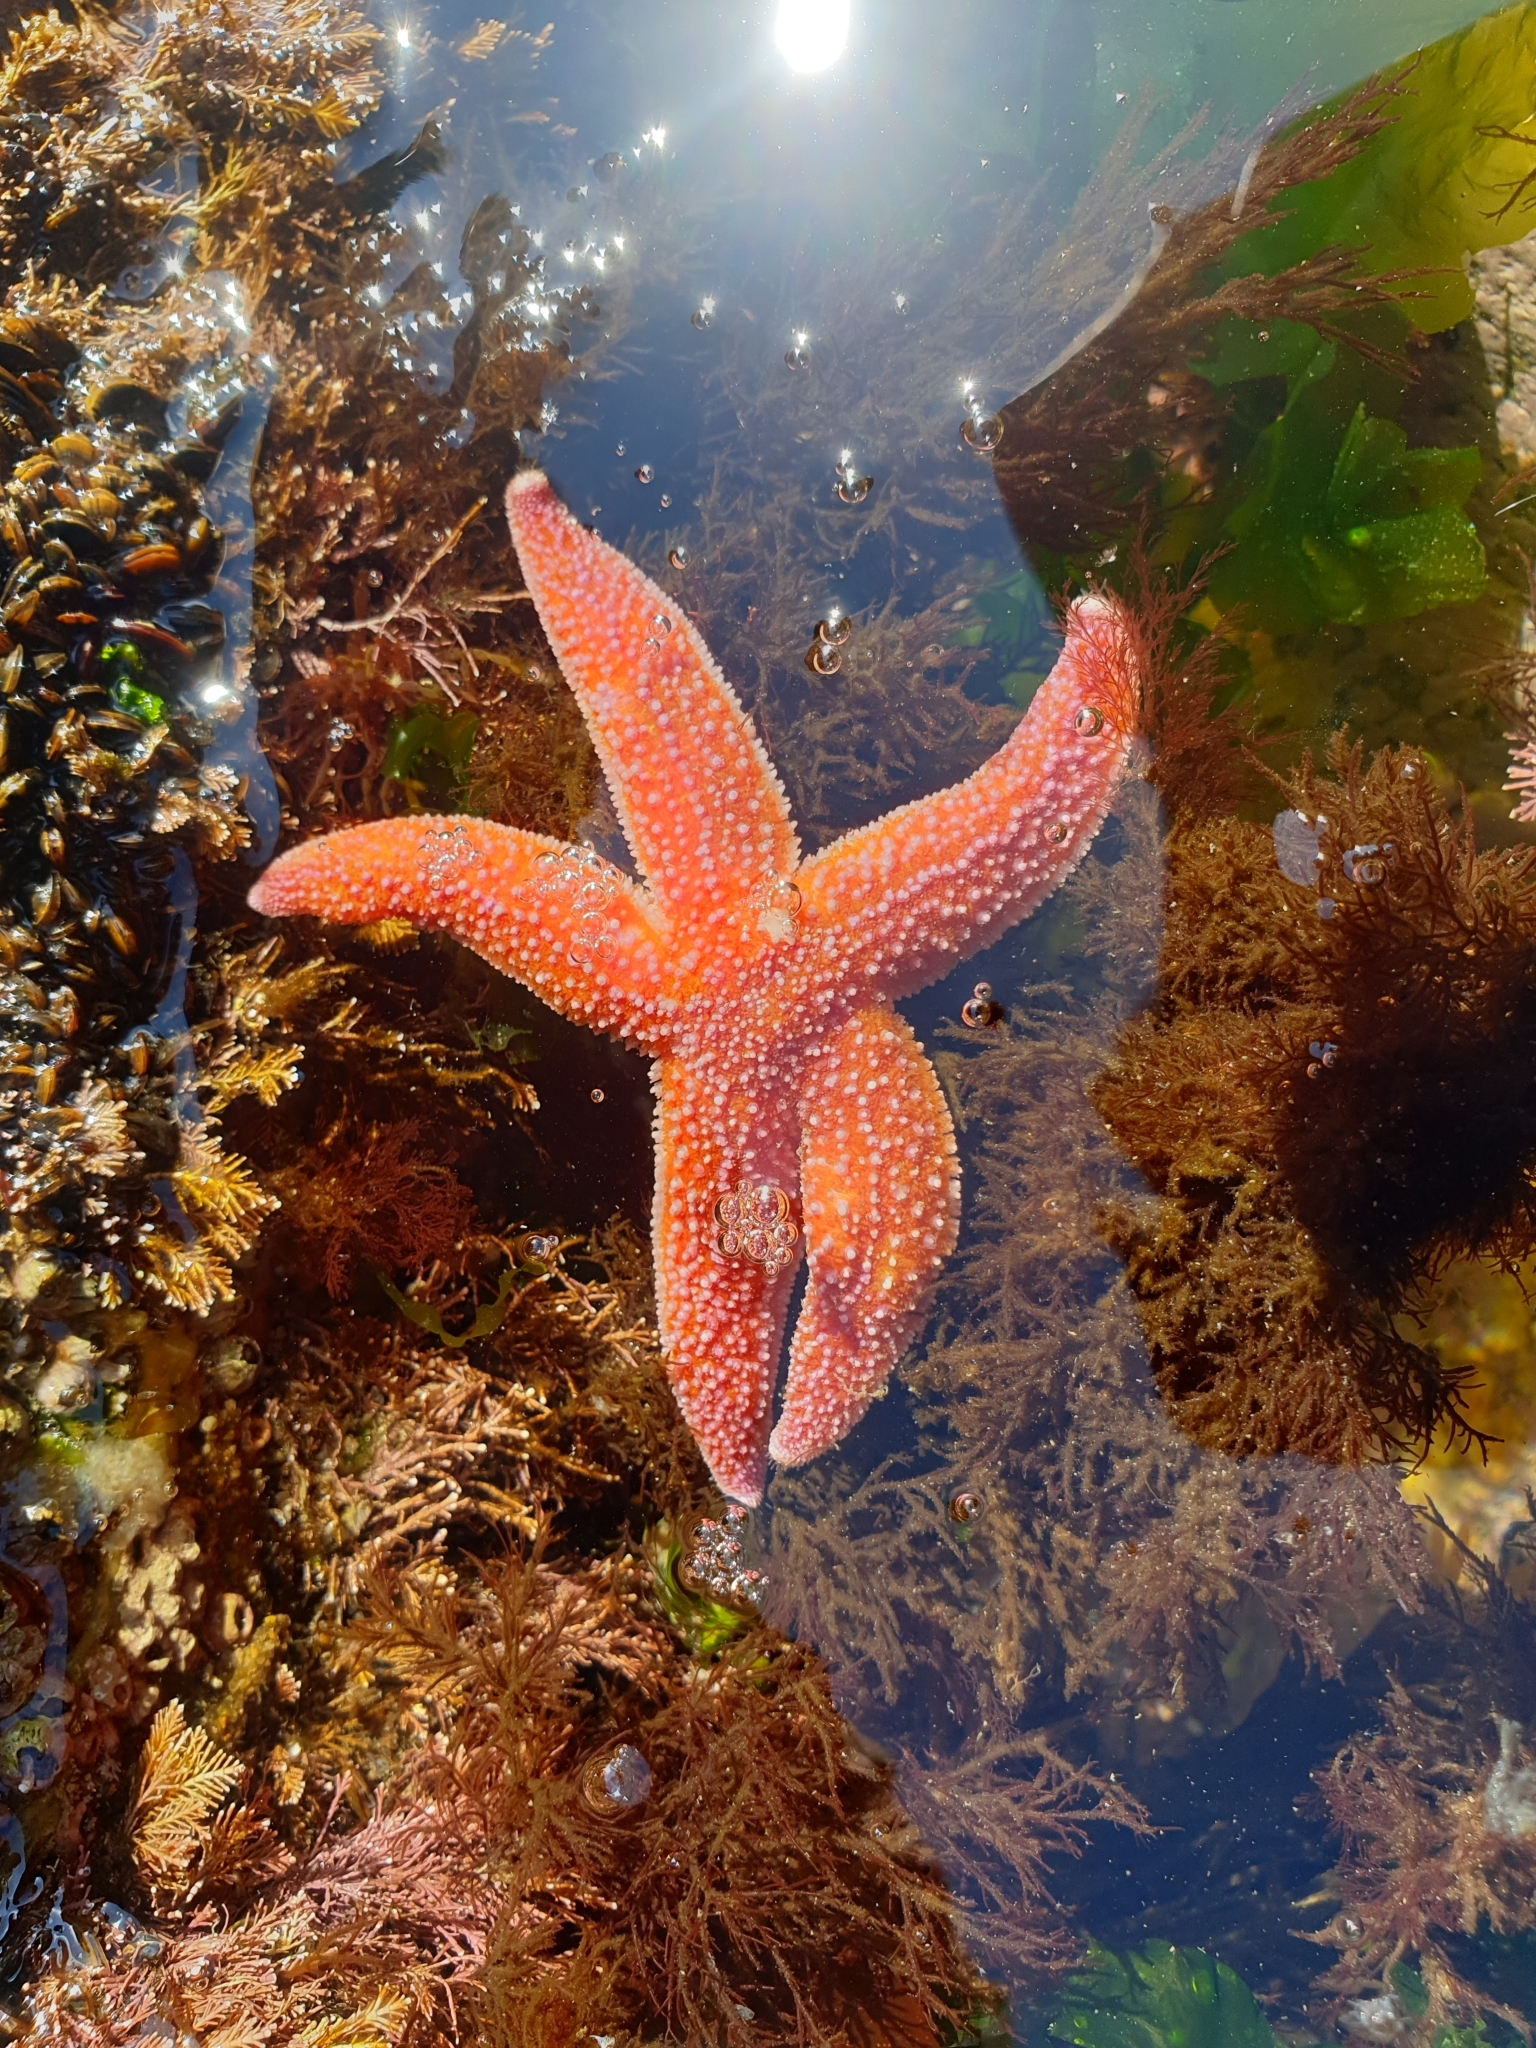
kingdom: Animalia
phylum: Echinodermata
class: Asteroidea
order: Forcipulatida
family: Asteriidae
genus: Asterias
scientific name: Asterias rubens
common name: Common starfish
